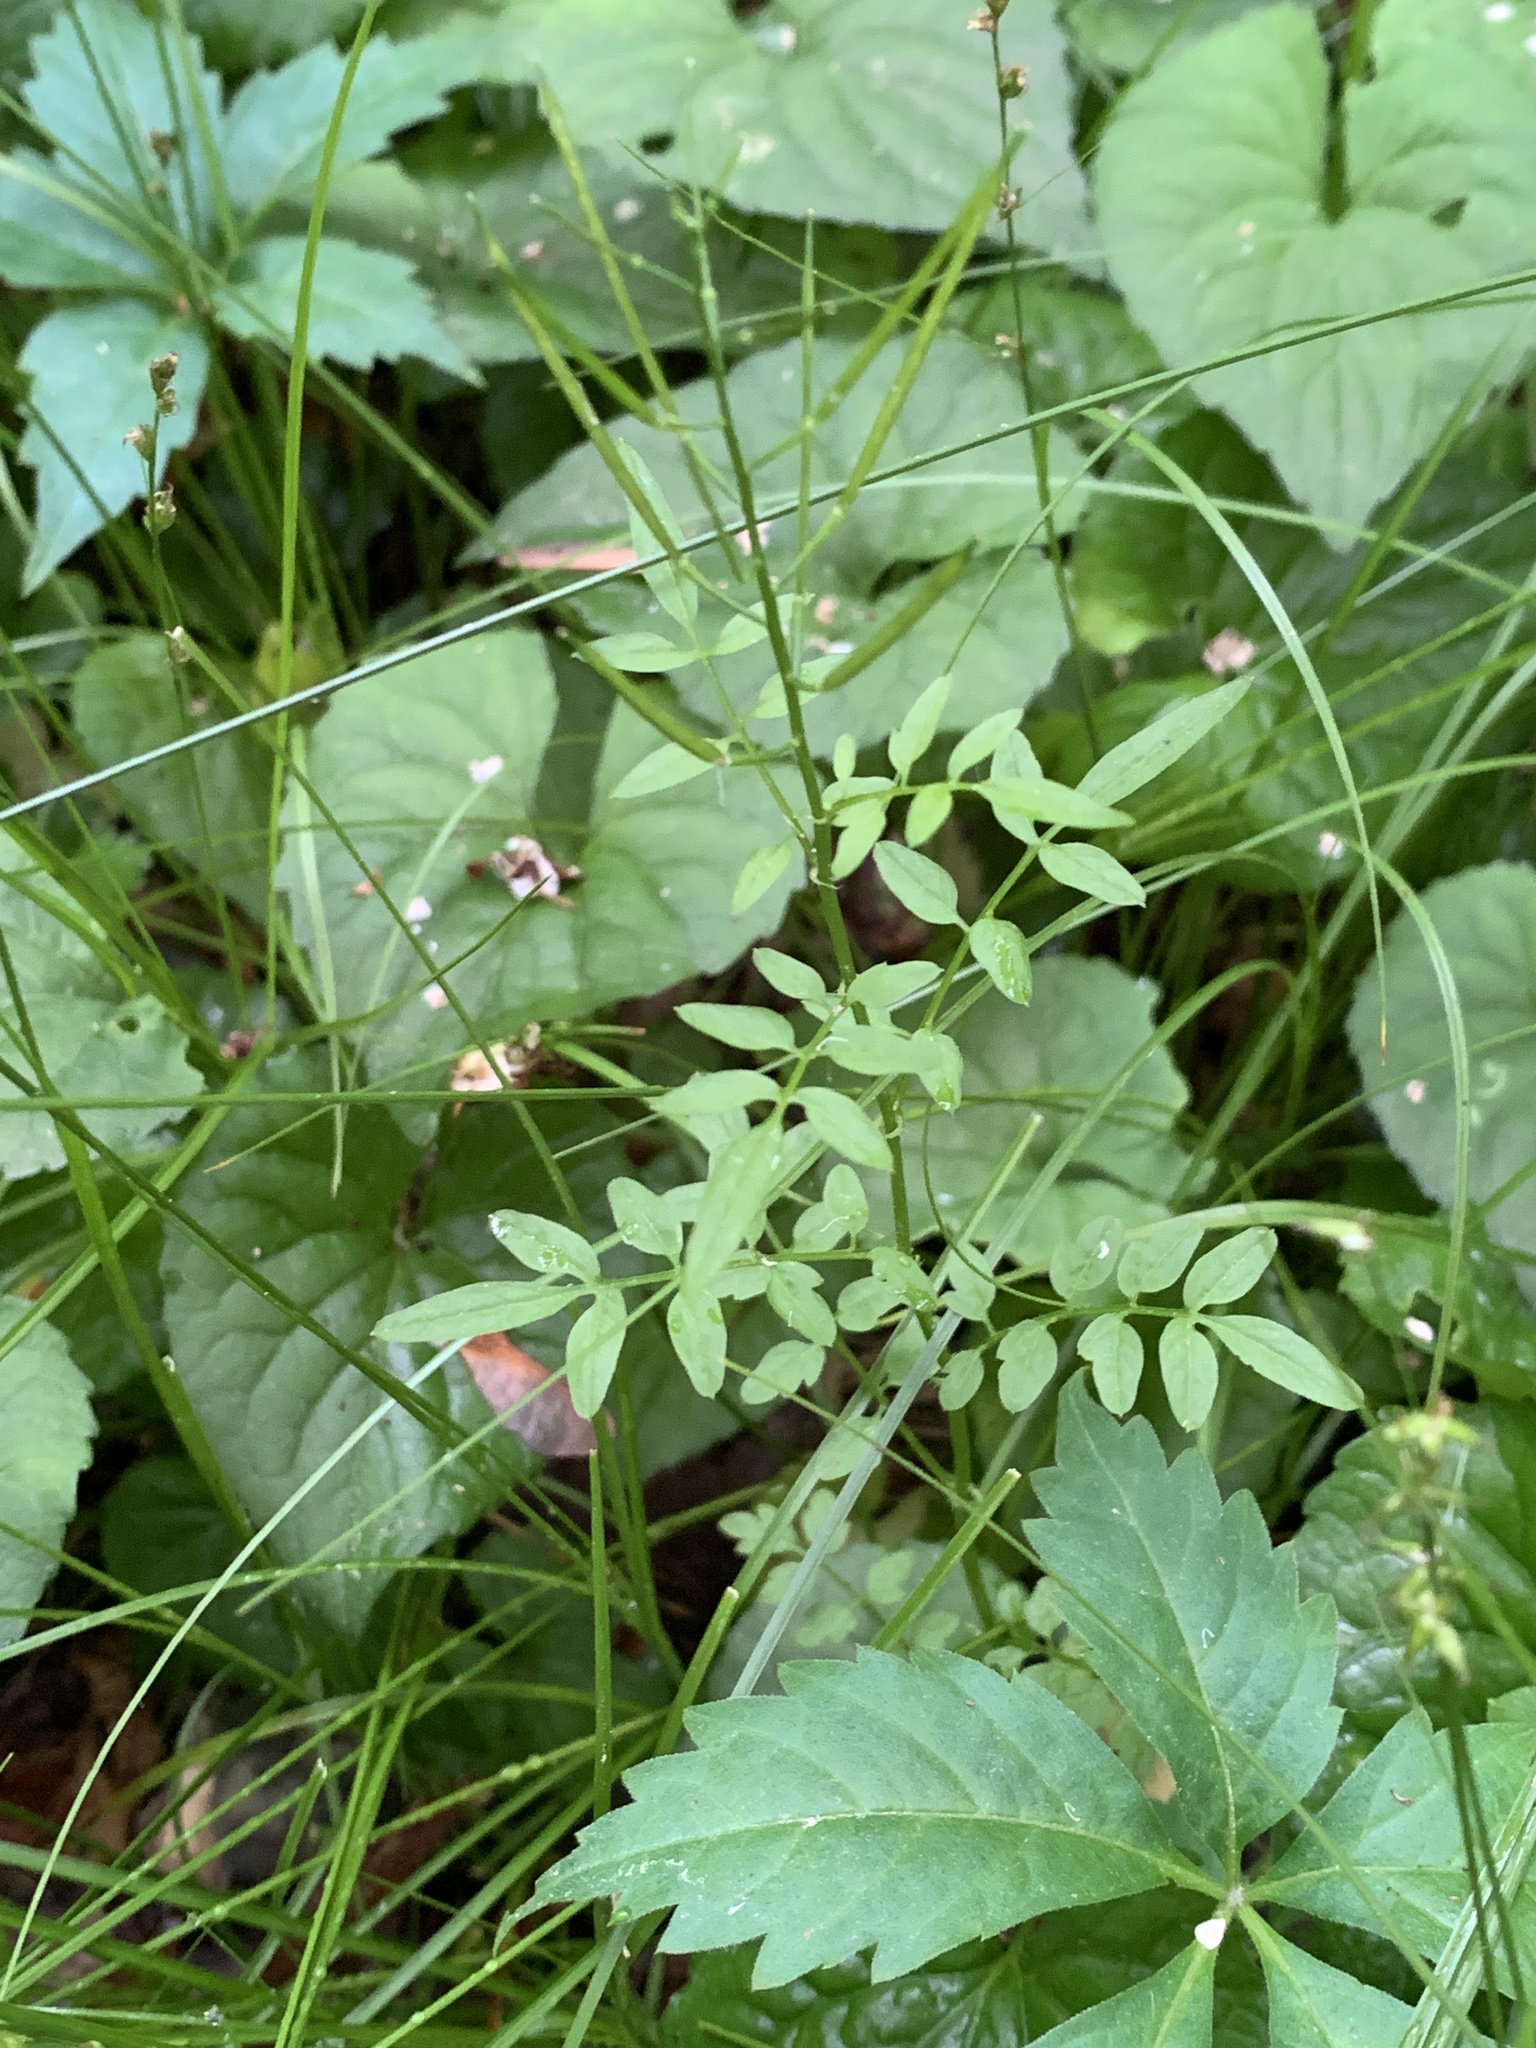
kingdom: Plantae
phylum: Tracheophyta
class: Magnoliopsida
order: Brassicales
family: Brassicaceae
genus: Cardamine
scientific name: Cardamine impatiens
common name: Narrow-leaved bitter-cress
